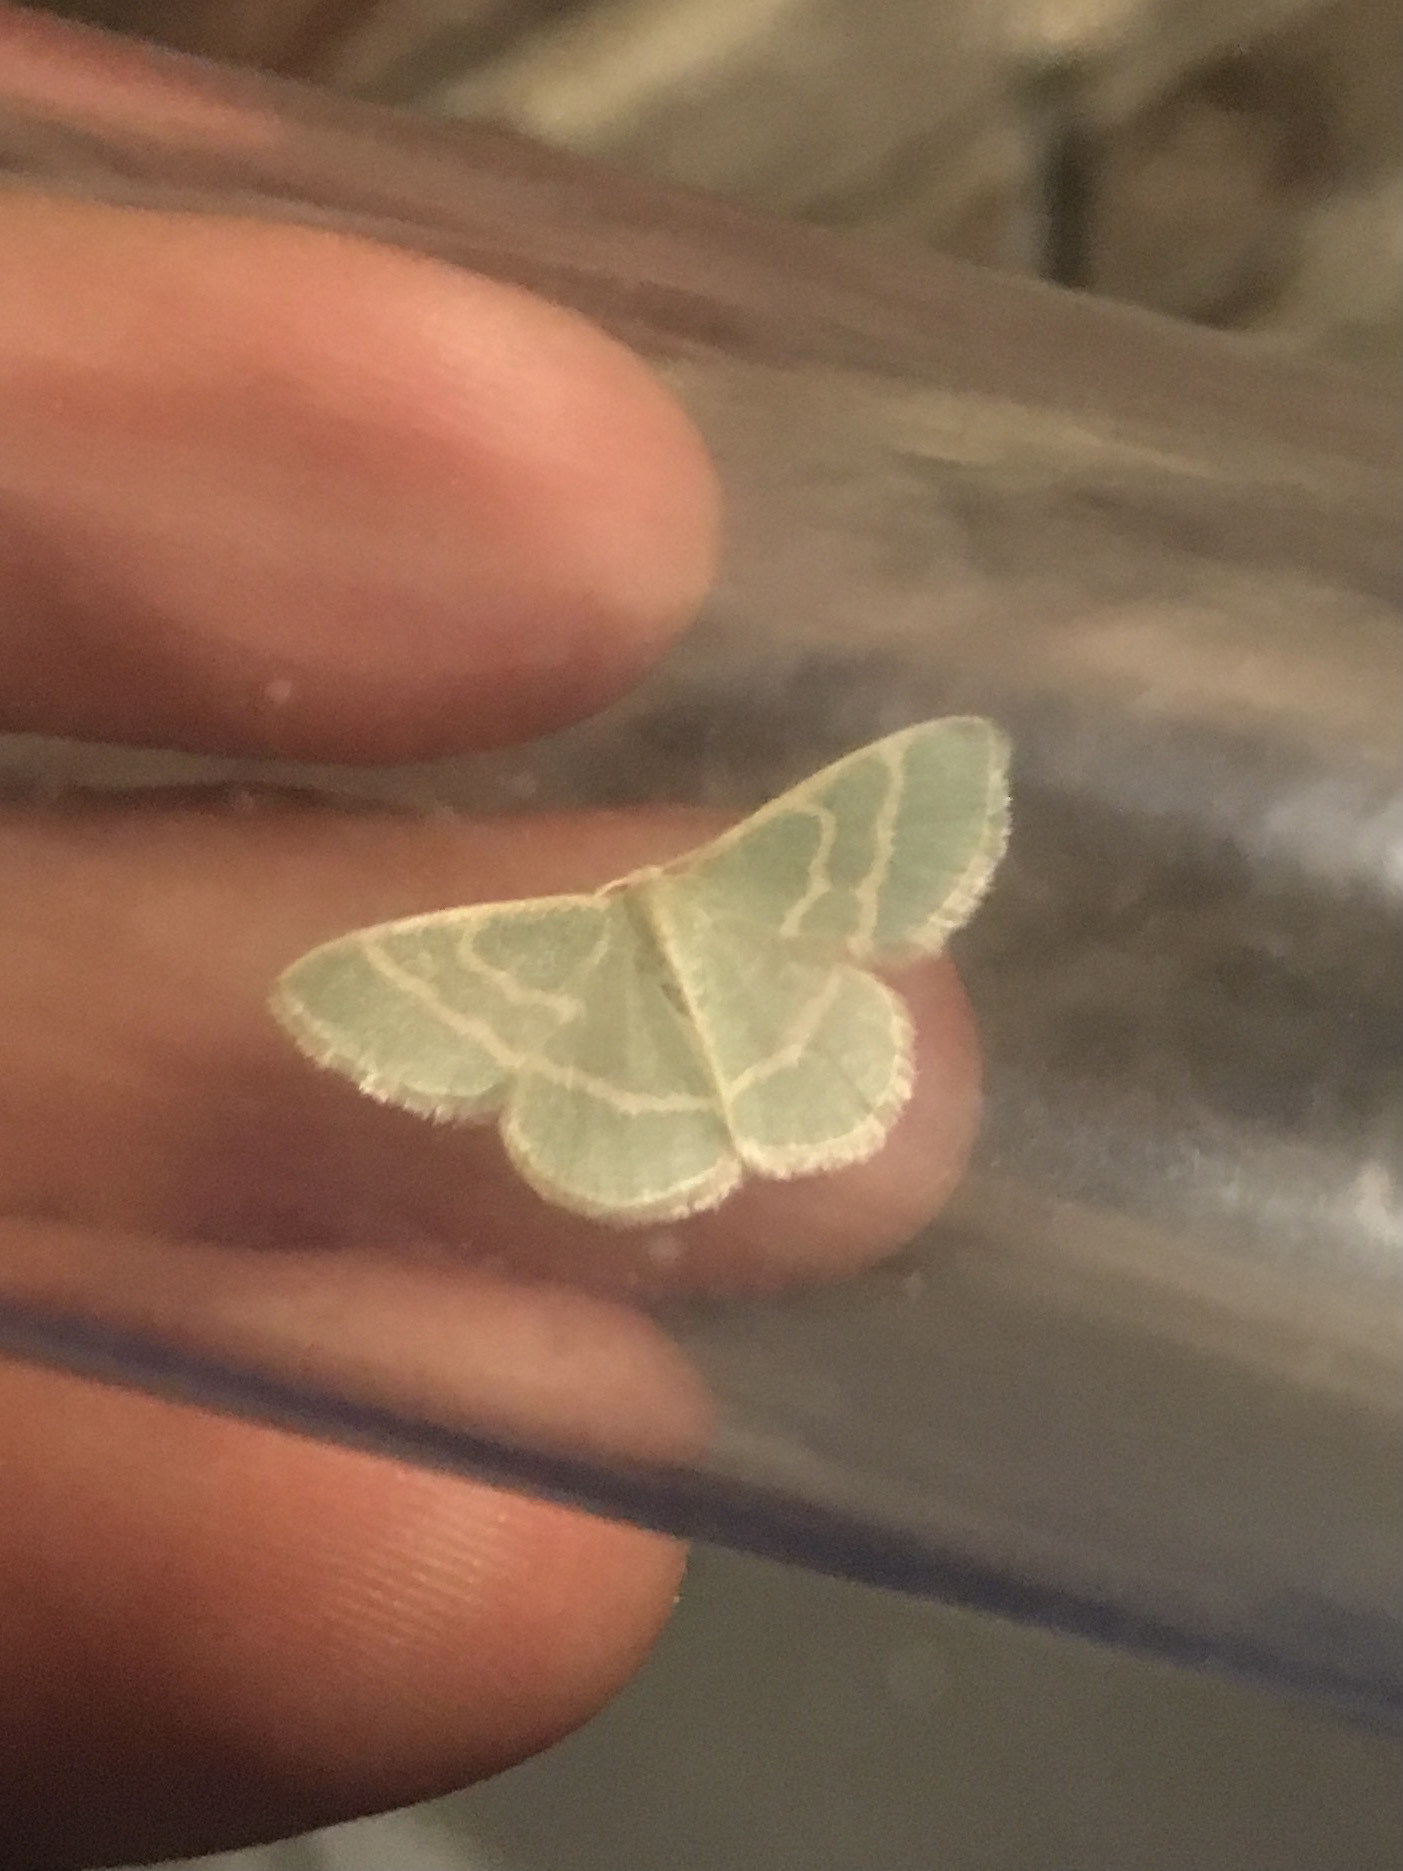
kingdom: Animalia
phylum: Arthropoda
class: Insecta
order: Lepidoptera
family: Geometridae
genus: Chlorochlamys
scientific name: Chlorochlamys chloroleucaria
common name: Blackberry looper
